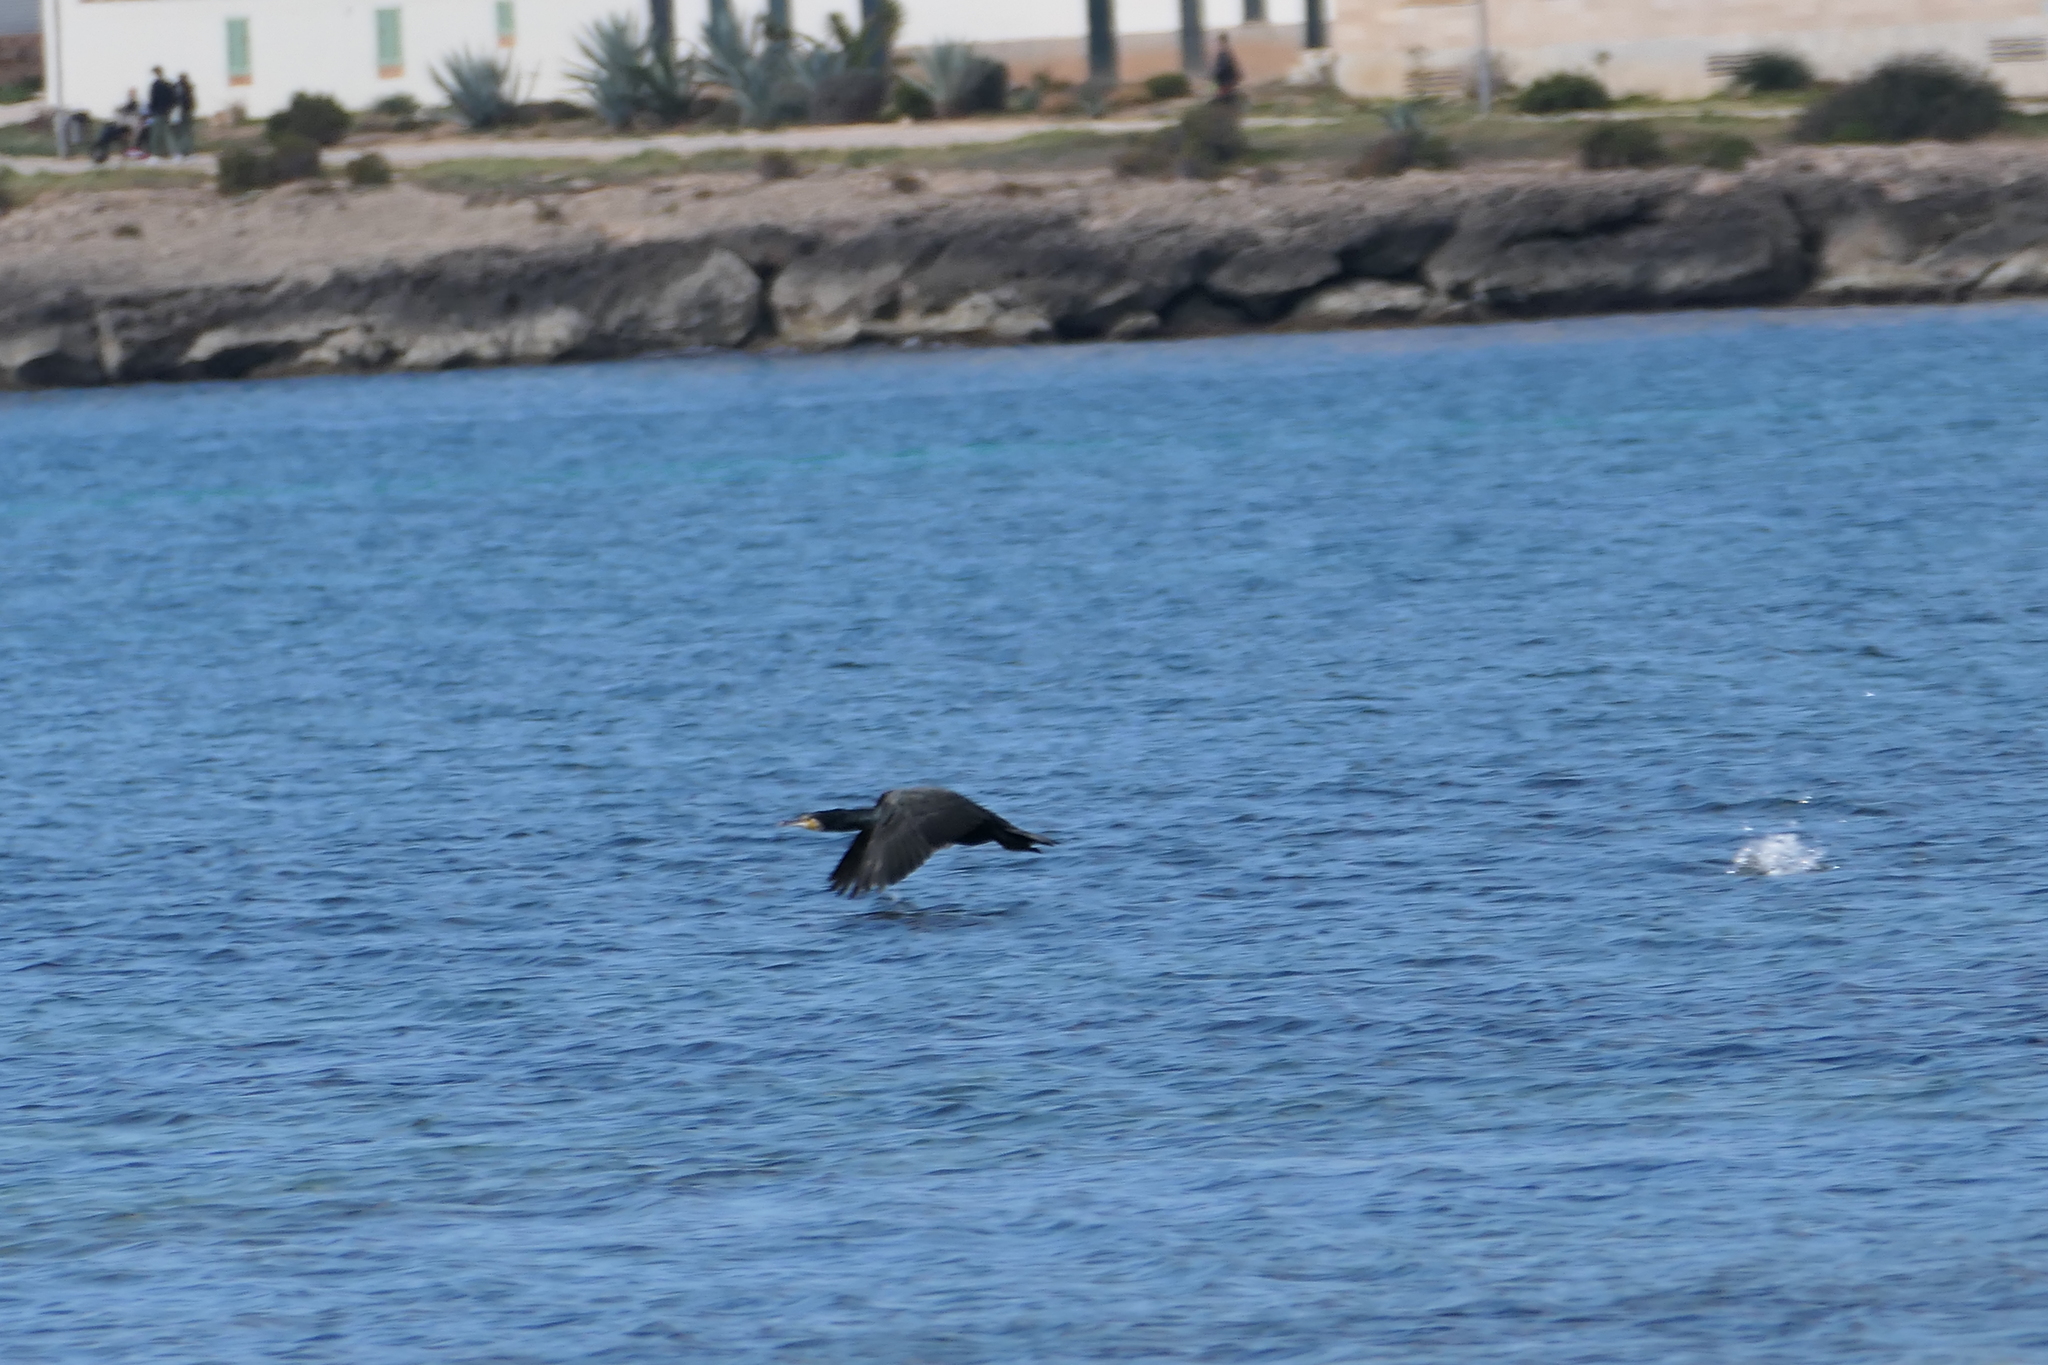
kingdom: Animalia
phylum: Chordata
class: Aves
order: Suliformes
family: Phalacrocoracidae
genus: Phalacrocorax
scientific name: Phalacrocorax carbo
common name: Great cormorant
